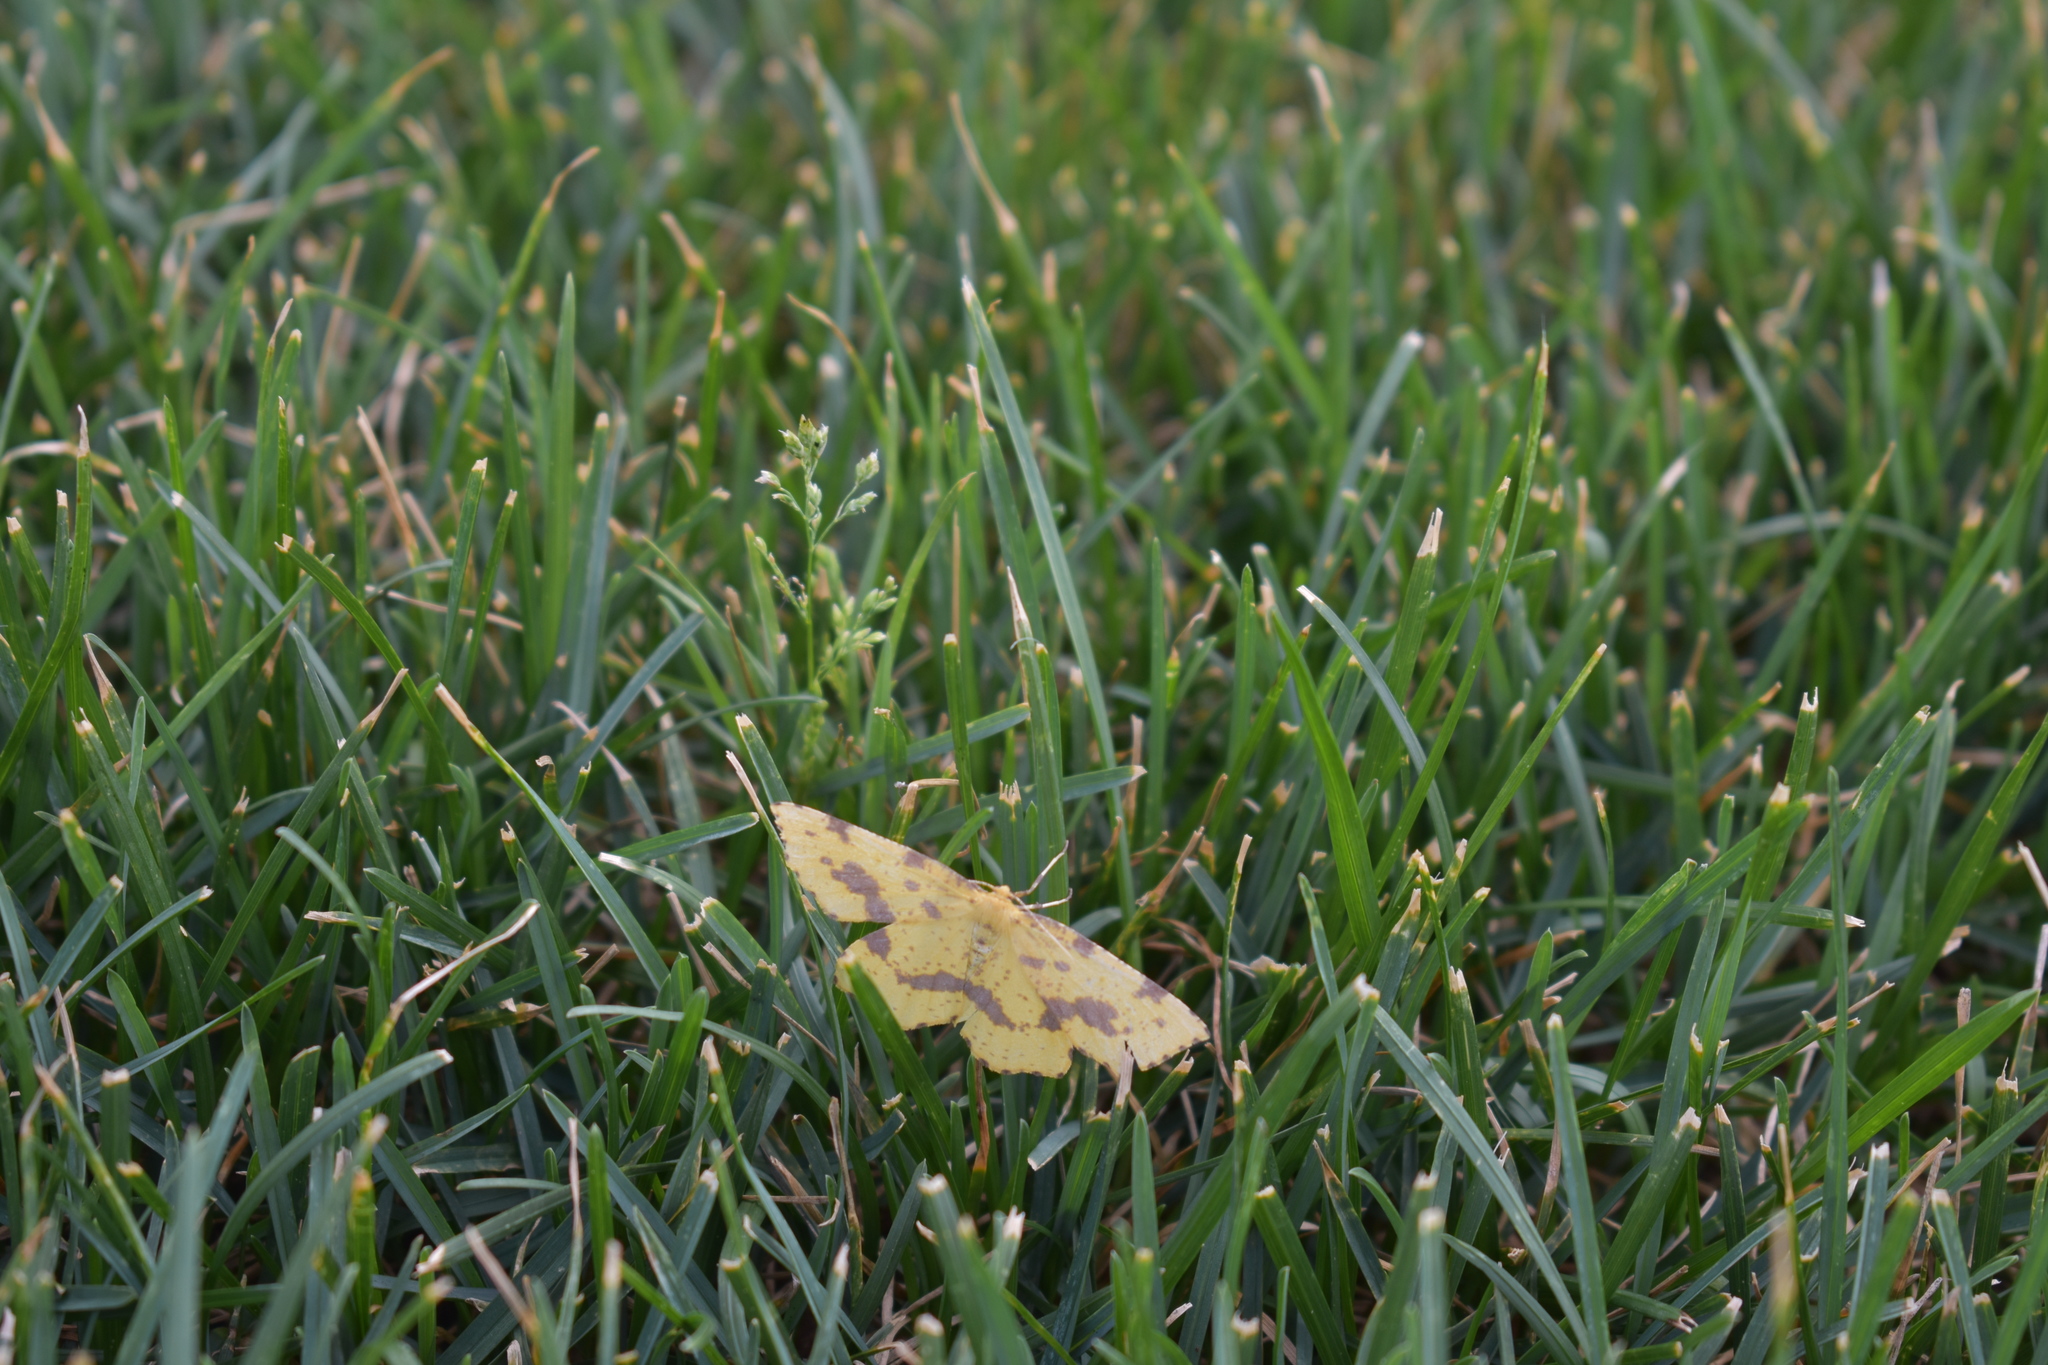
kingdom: Animalia
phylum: Arthropoda
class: Insecta
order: Lepidoptera
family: Geometridae
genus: Xanthotype
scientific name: Xanthotype
